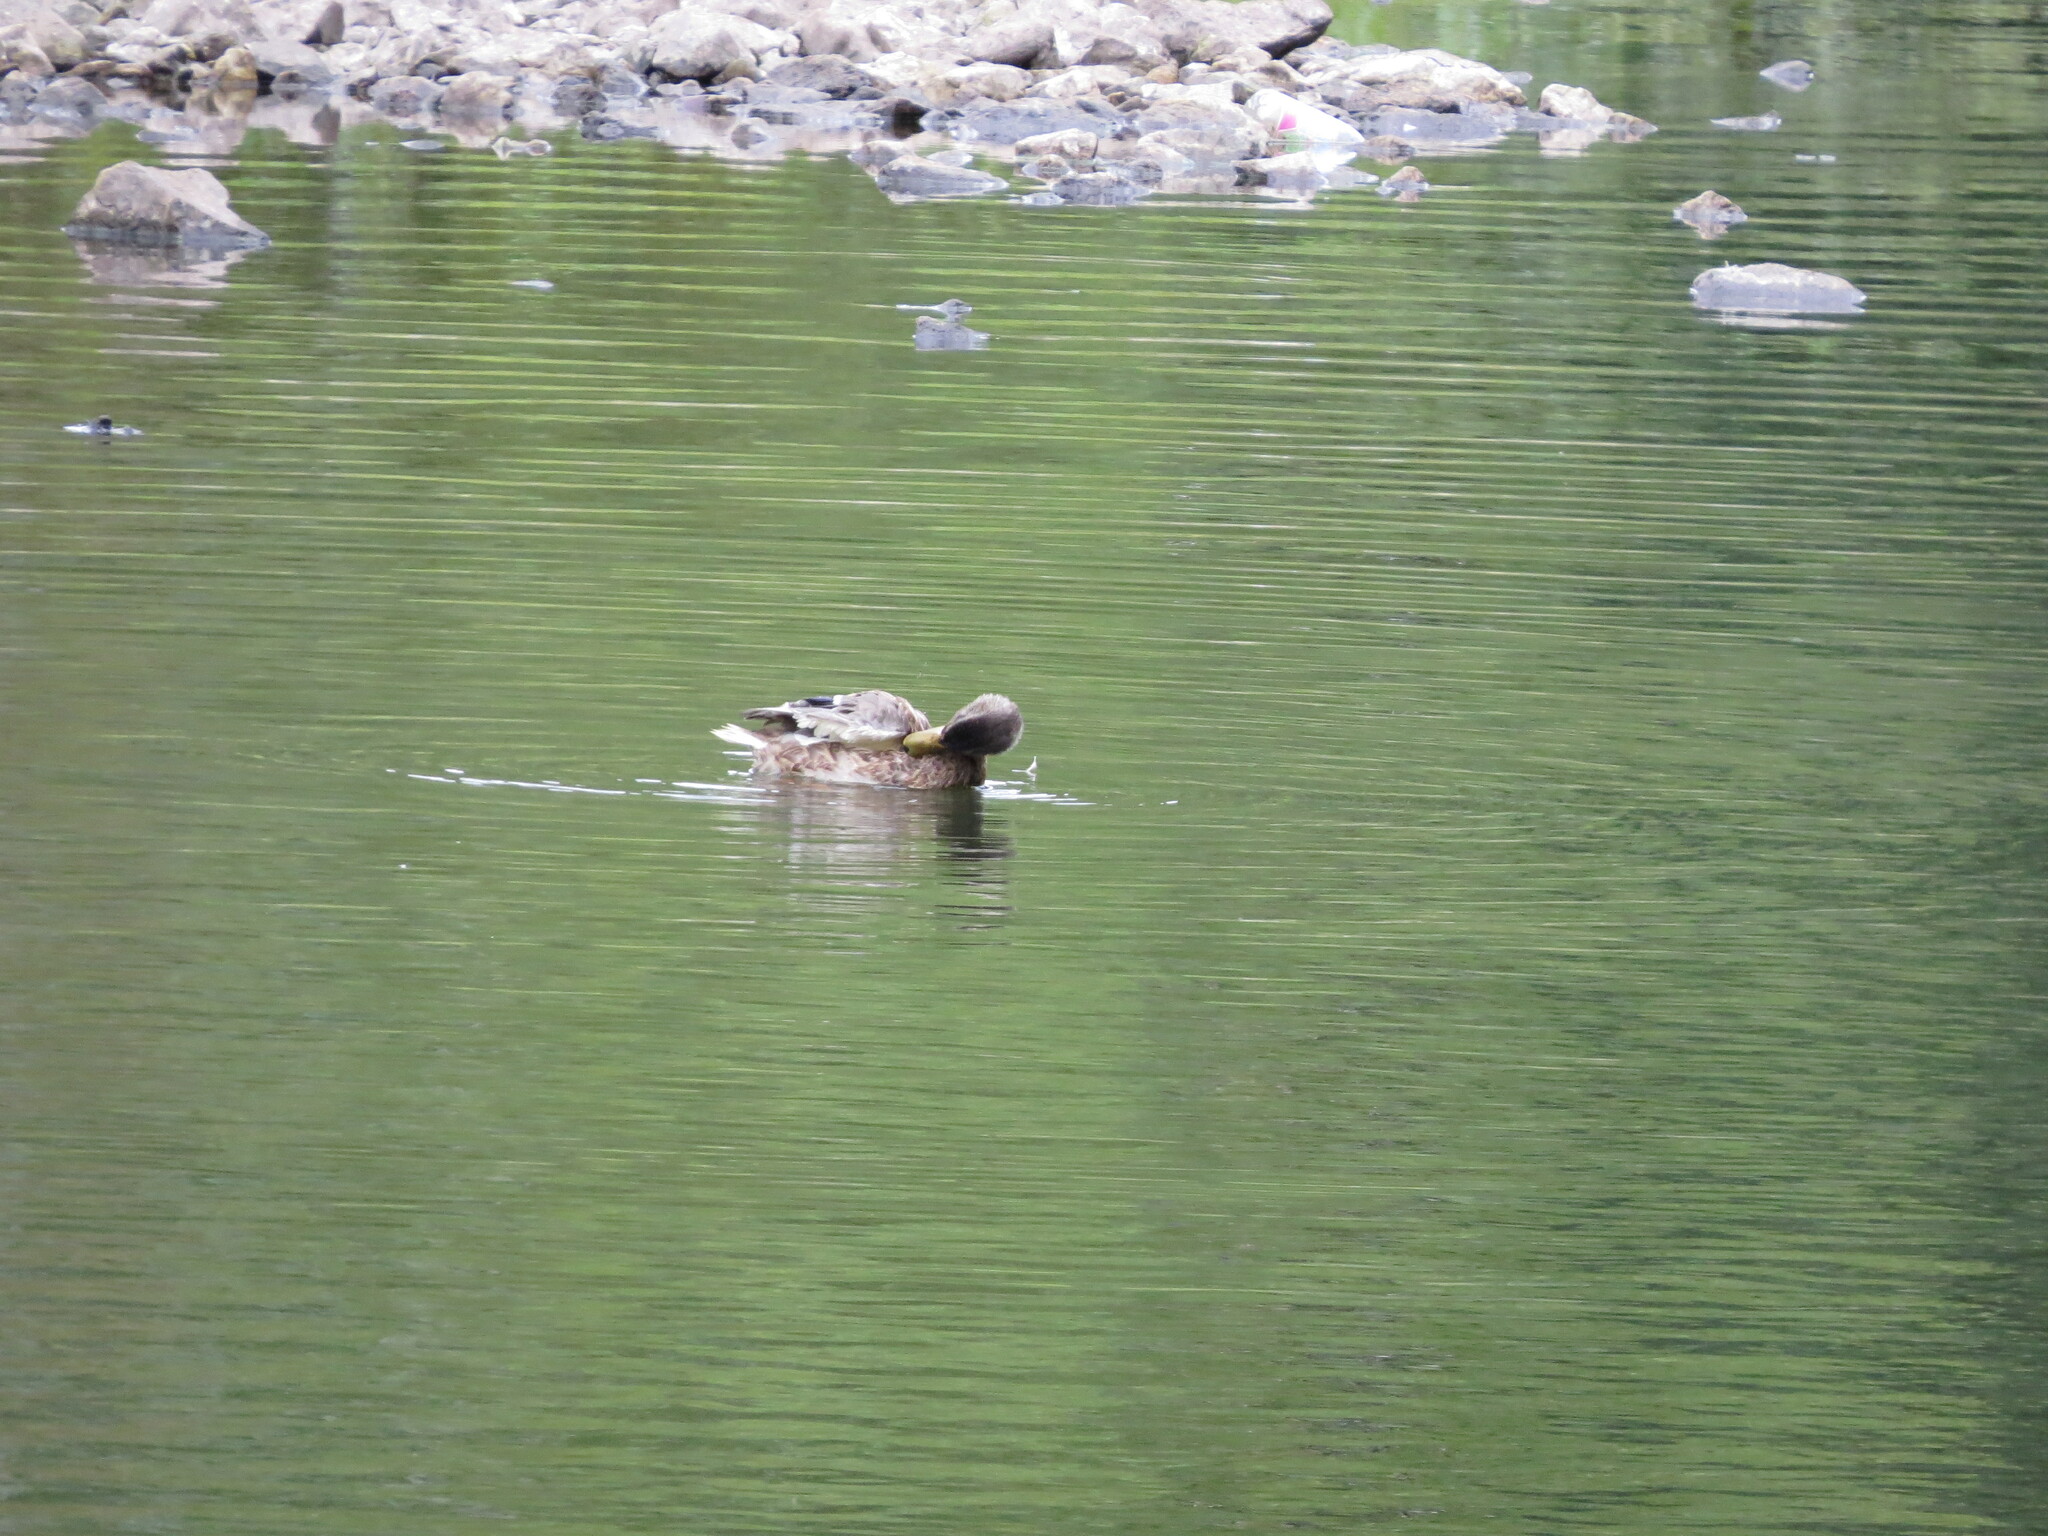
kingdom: Animalia
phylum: Chordata
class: Aves
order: Anseriformes
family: Anatidae
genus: Anas
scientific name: Anas platyrhynchos
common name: Mallard
